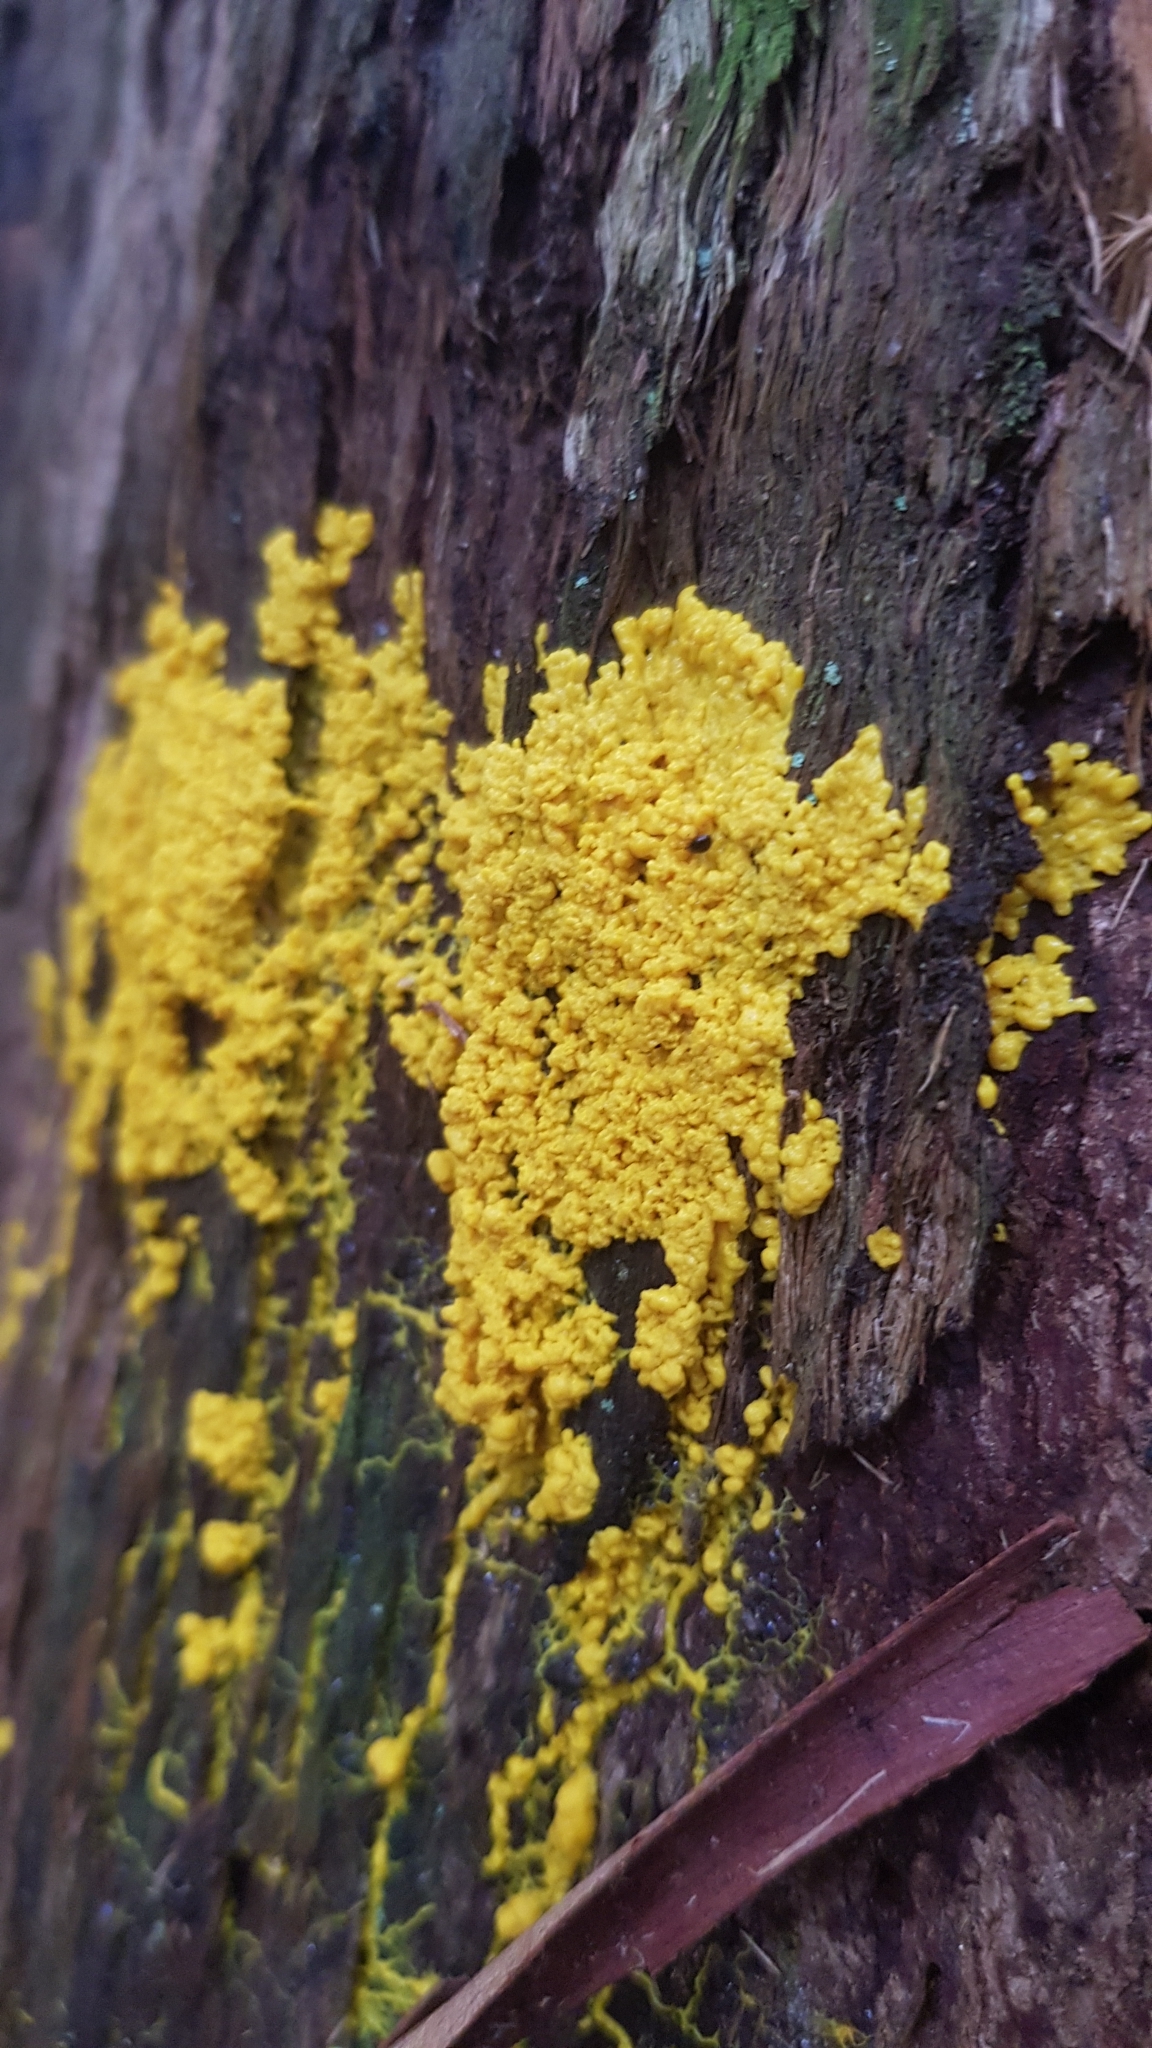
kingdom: Protozoa
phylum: Mycetozoa
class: Myxomycetes
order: Physarales
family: Physaraceae
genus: Fuligo
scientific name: Fuligo septica
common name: Dog vomit slime mold
